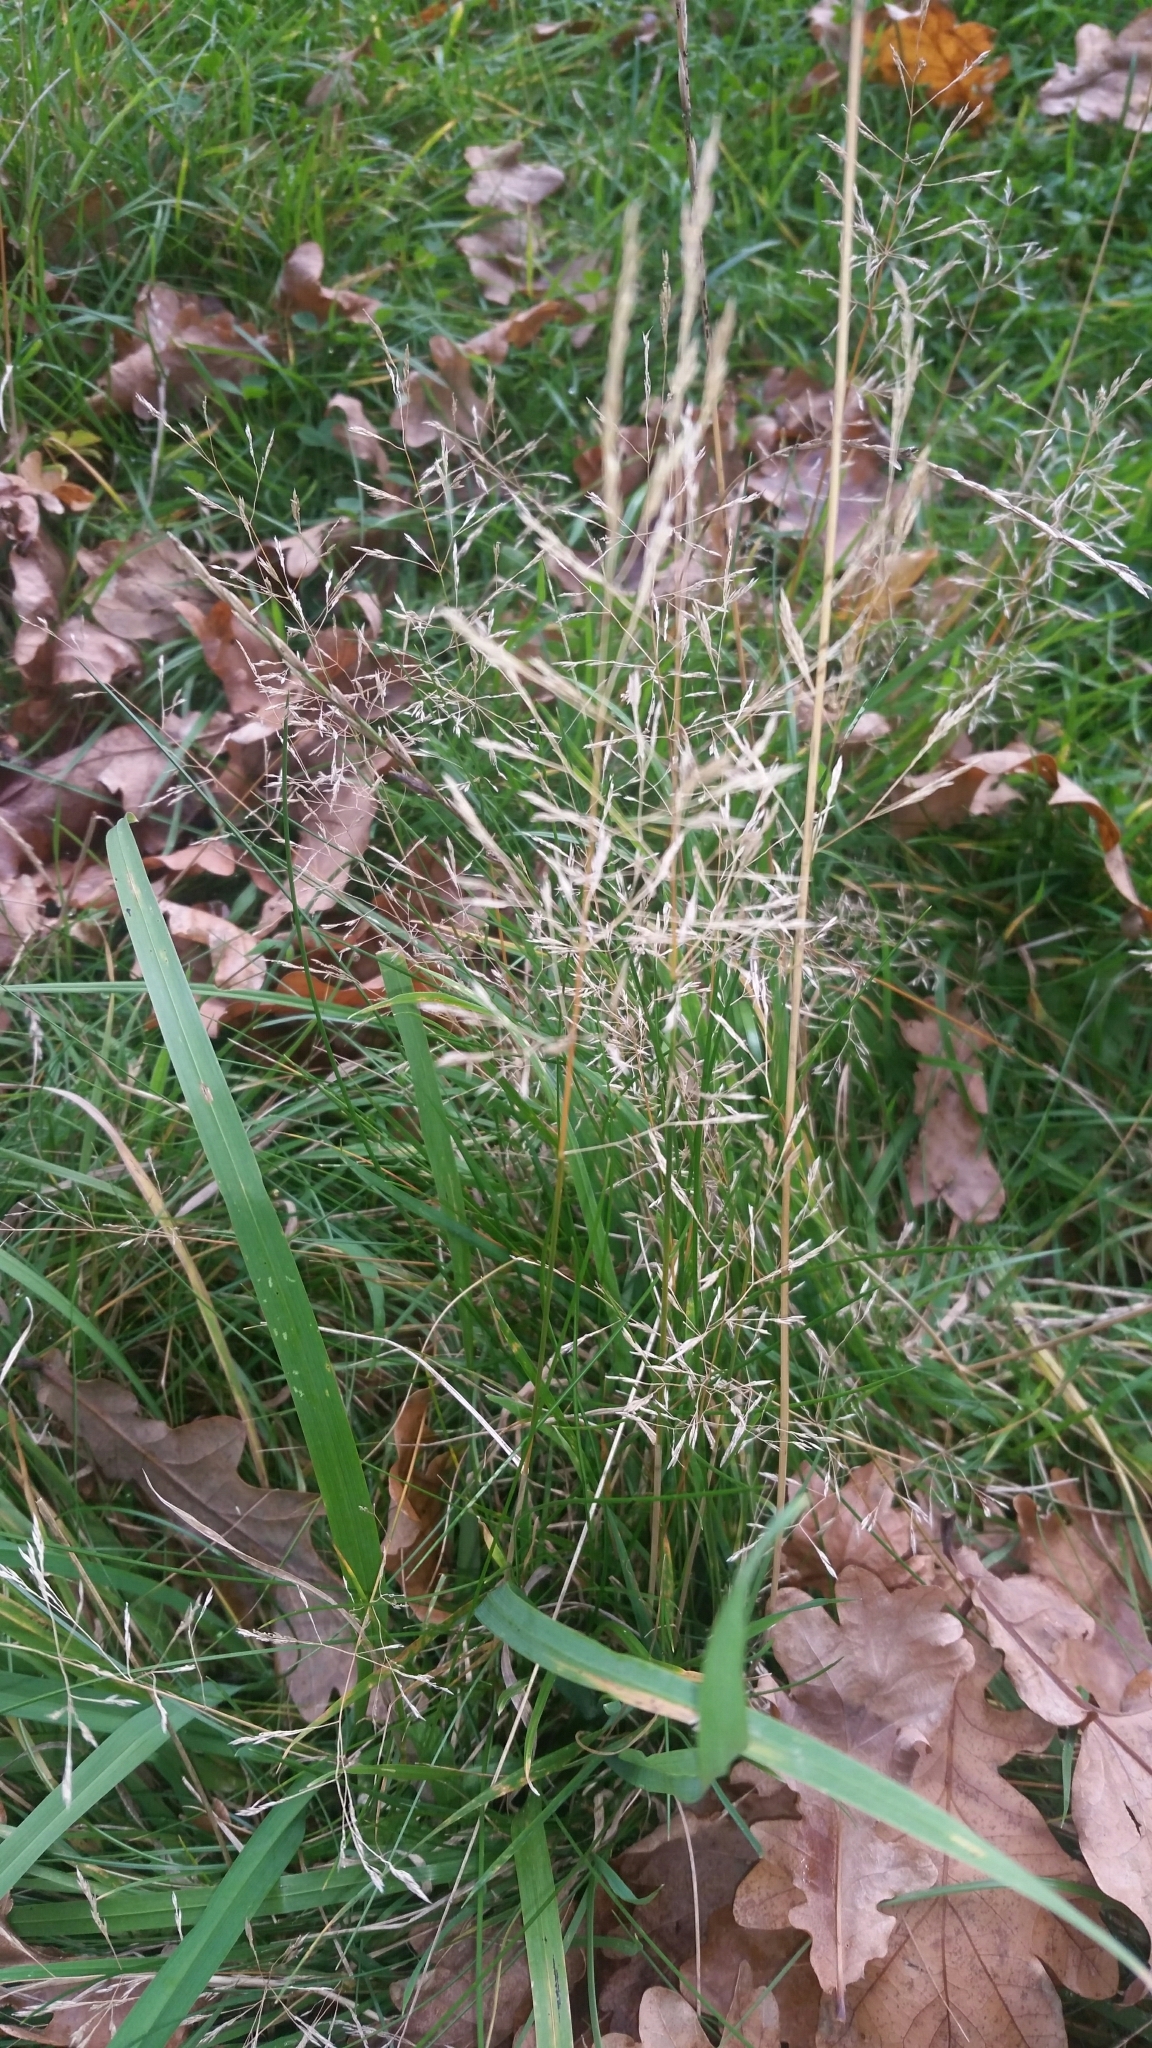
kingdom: Plantae
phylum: Tracheophyta
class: Liliopsida
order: Poales
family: Poaceae
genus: Agrostis
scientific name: Agrostis capillaris
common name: Colonial bentgrass
